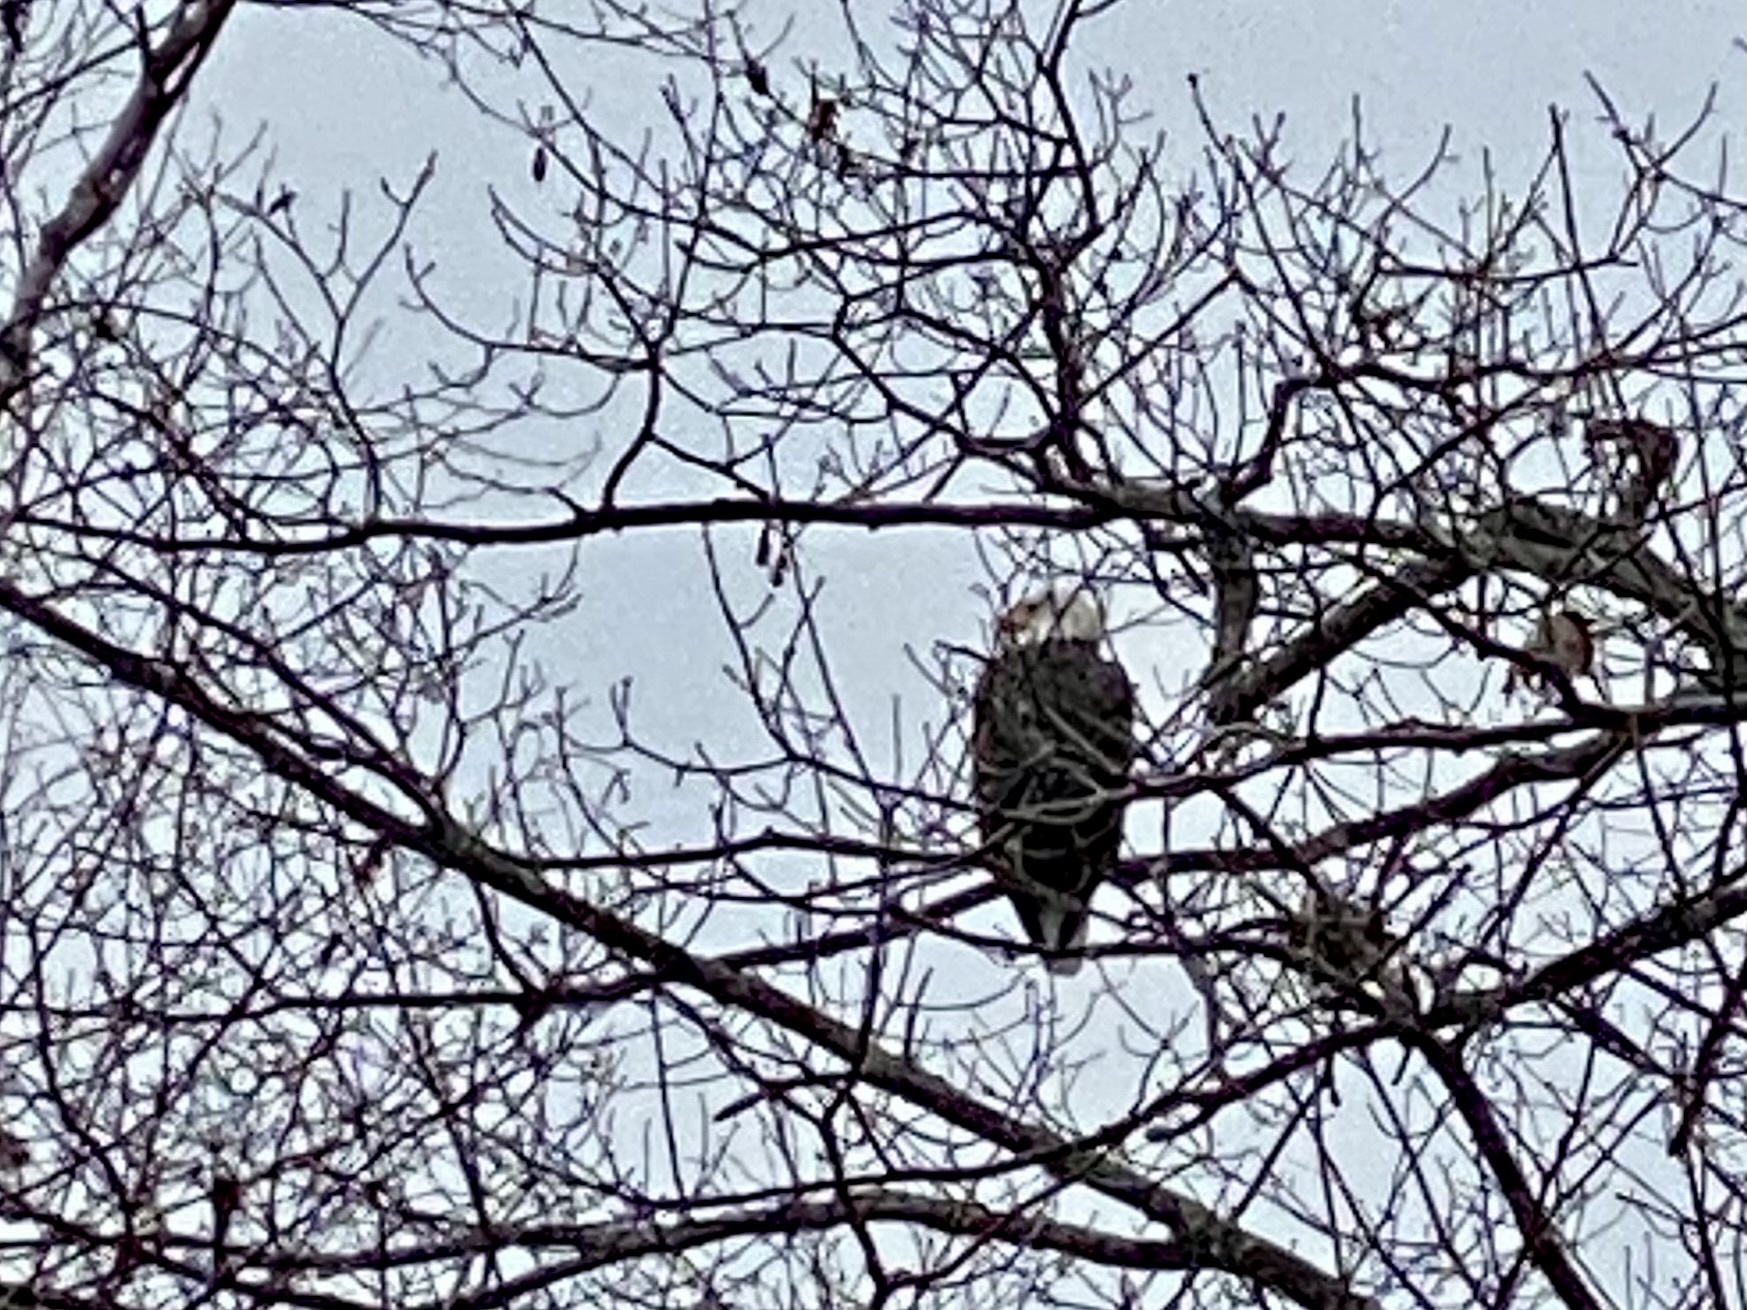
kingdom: Animalia
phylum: Chordata
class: Aves
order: Accipitriformes
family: Accipitridae
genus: Haliaeetus
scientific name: Haliaeetus leucocephalus
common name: Bald eagle
